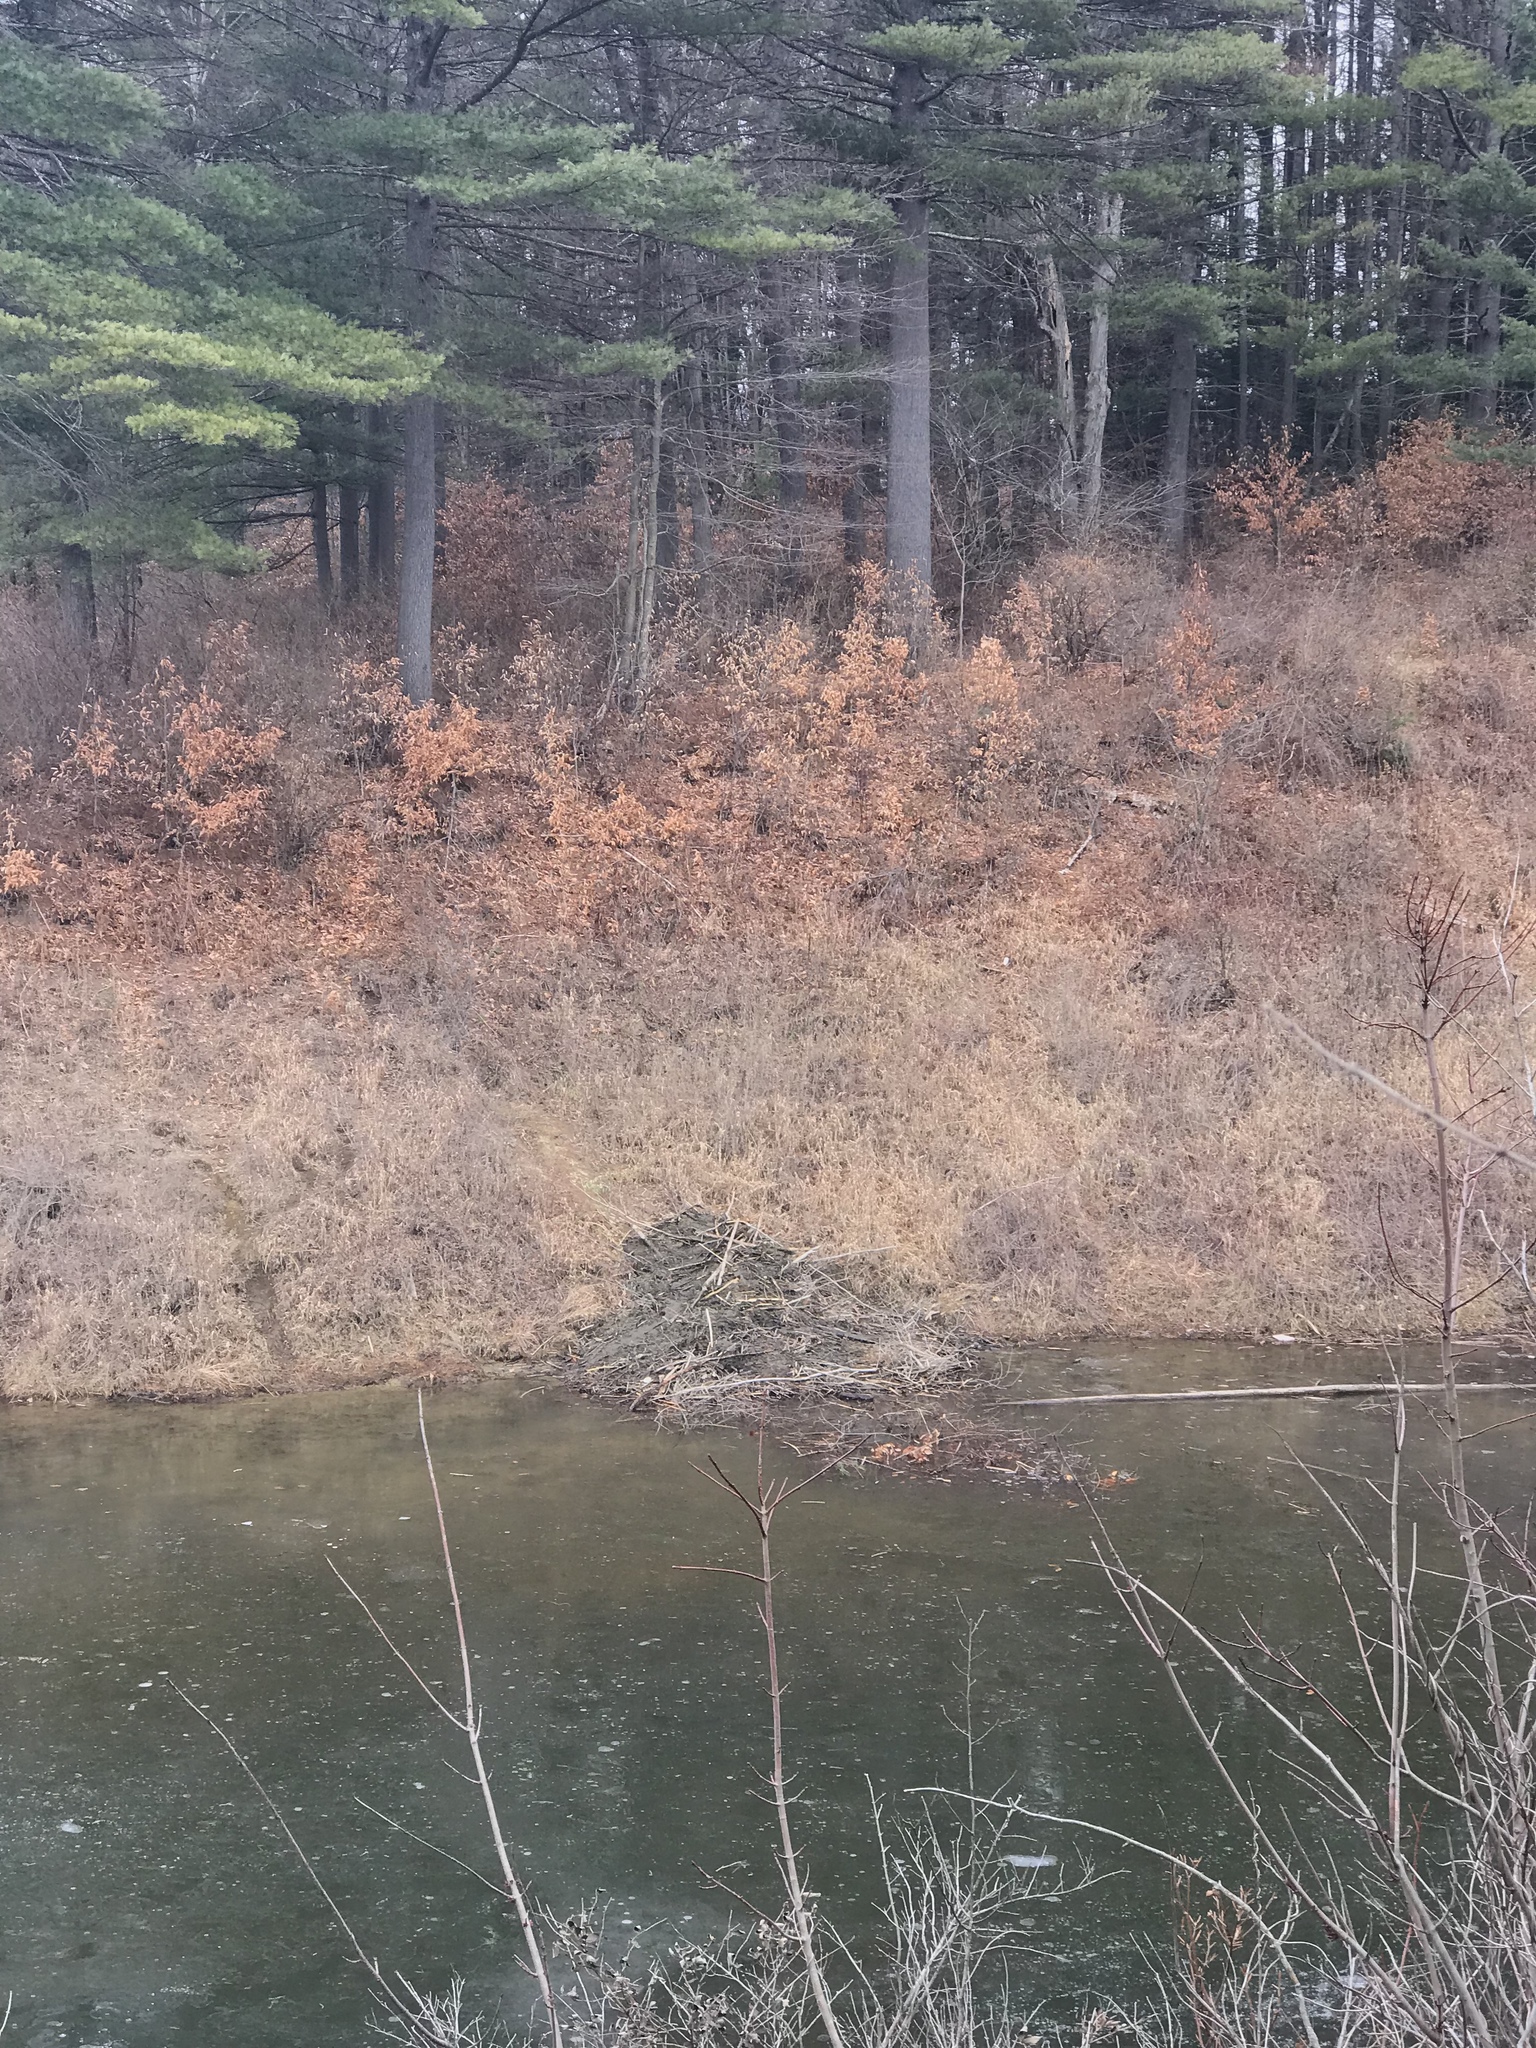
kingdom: Animalia
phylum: Chordata
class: Mammalia
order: Rodentia
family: Castoridae
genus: Castor
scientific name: Castor canadensis
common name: American beaver
